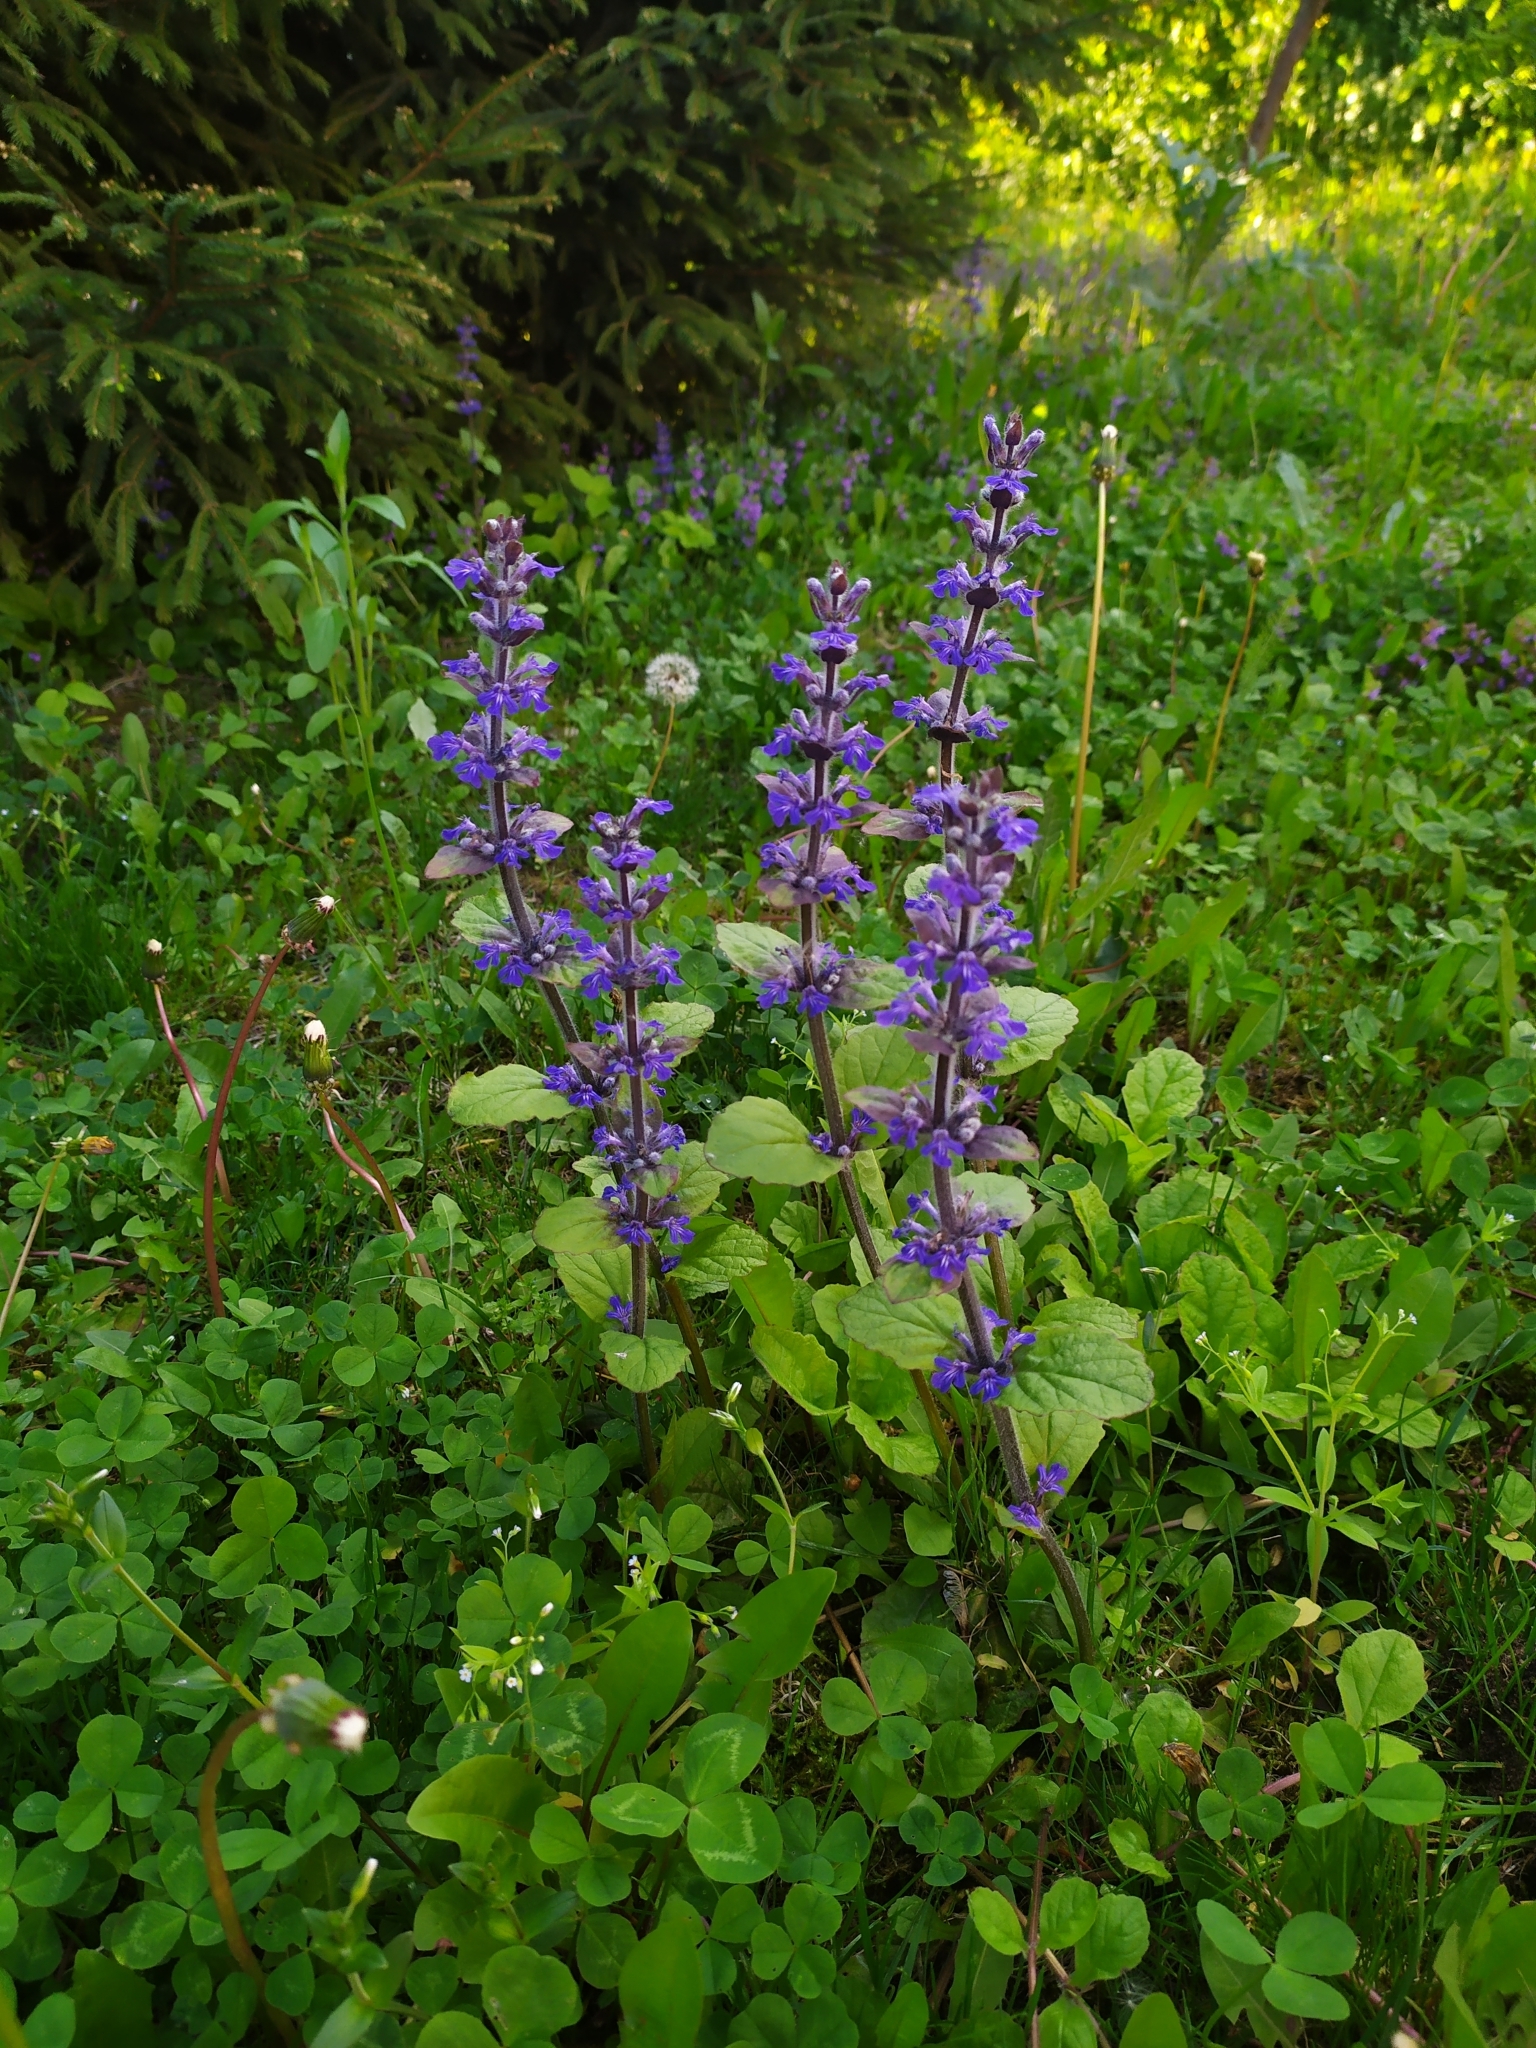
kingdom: Plantae
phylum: Tracheophyta
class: Magnoliopsida
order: Lamiales
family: Lamiaceae
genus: Ajuga
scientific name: Ajuga reptans
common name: Bugle
